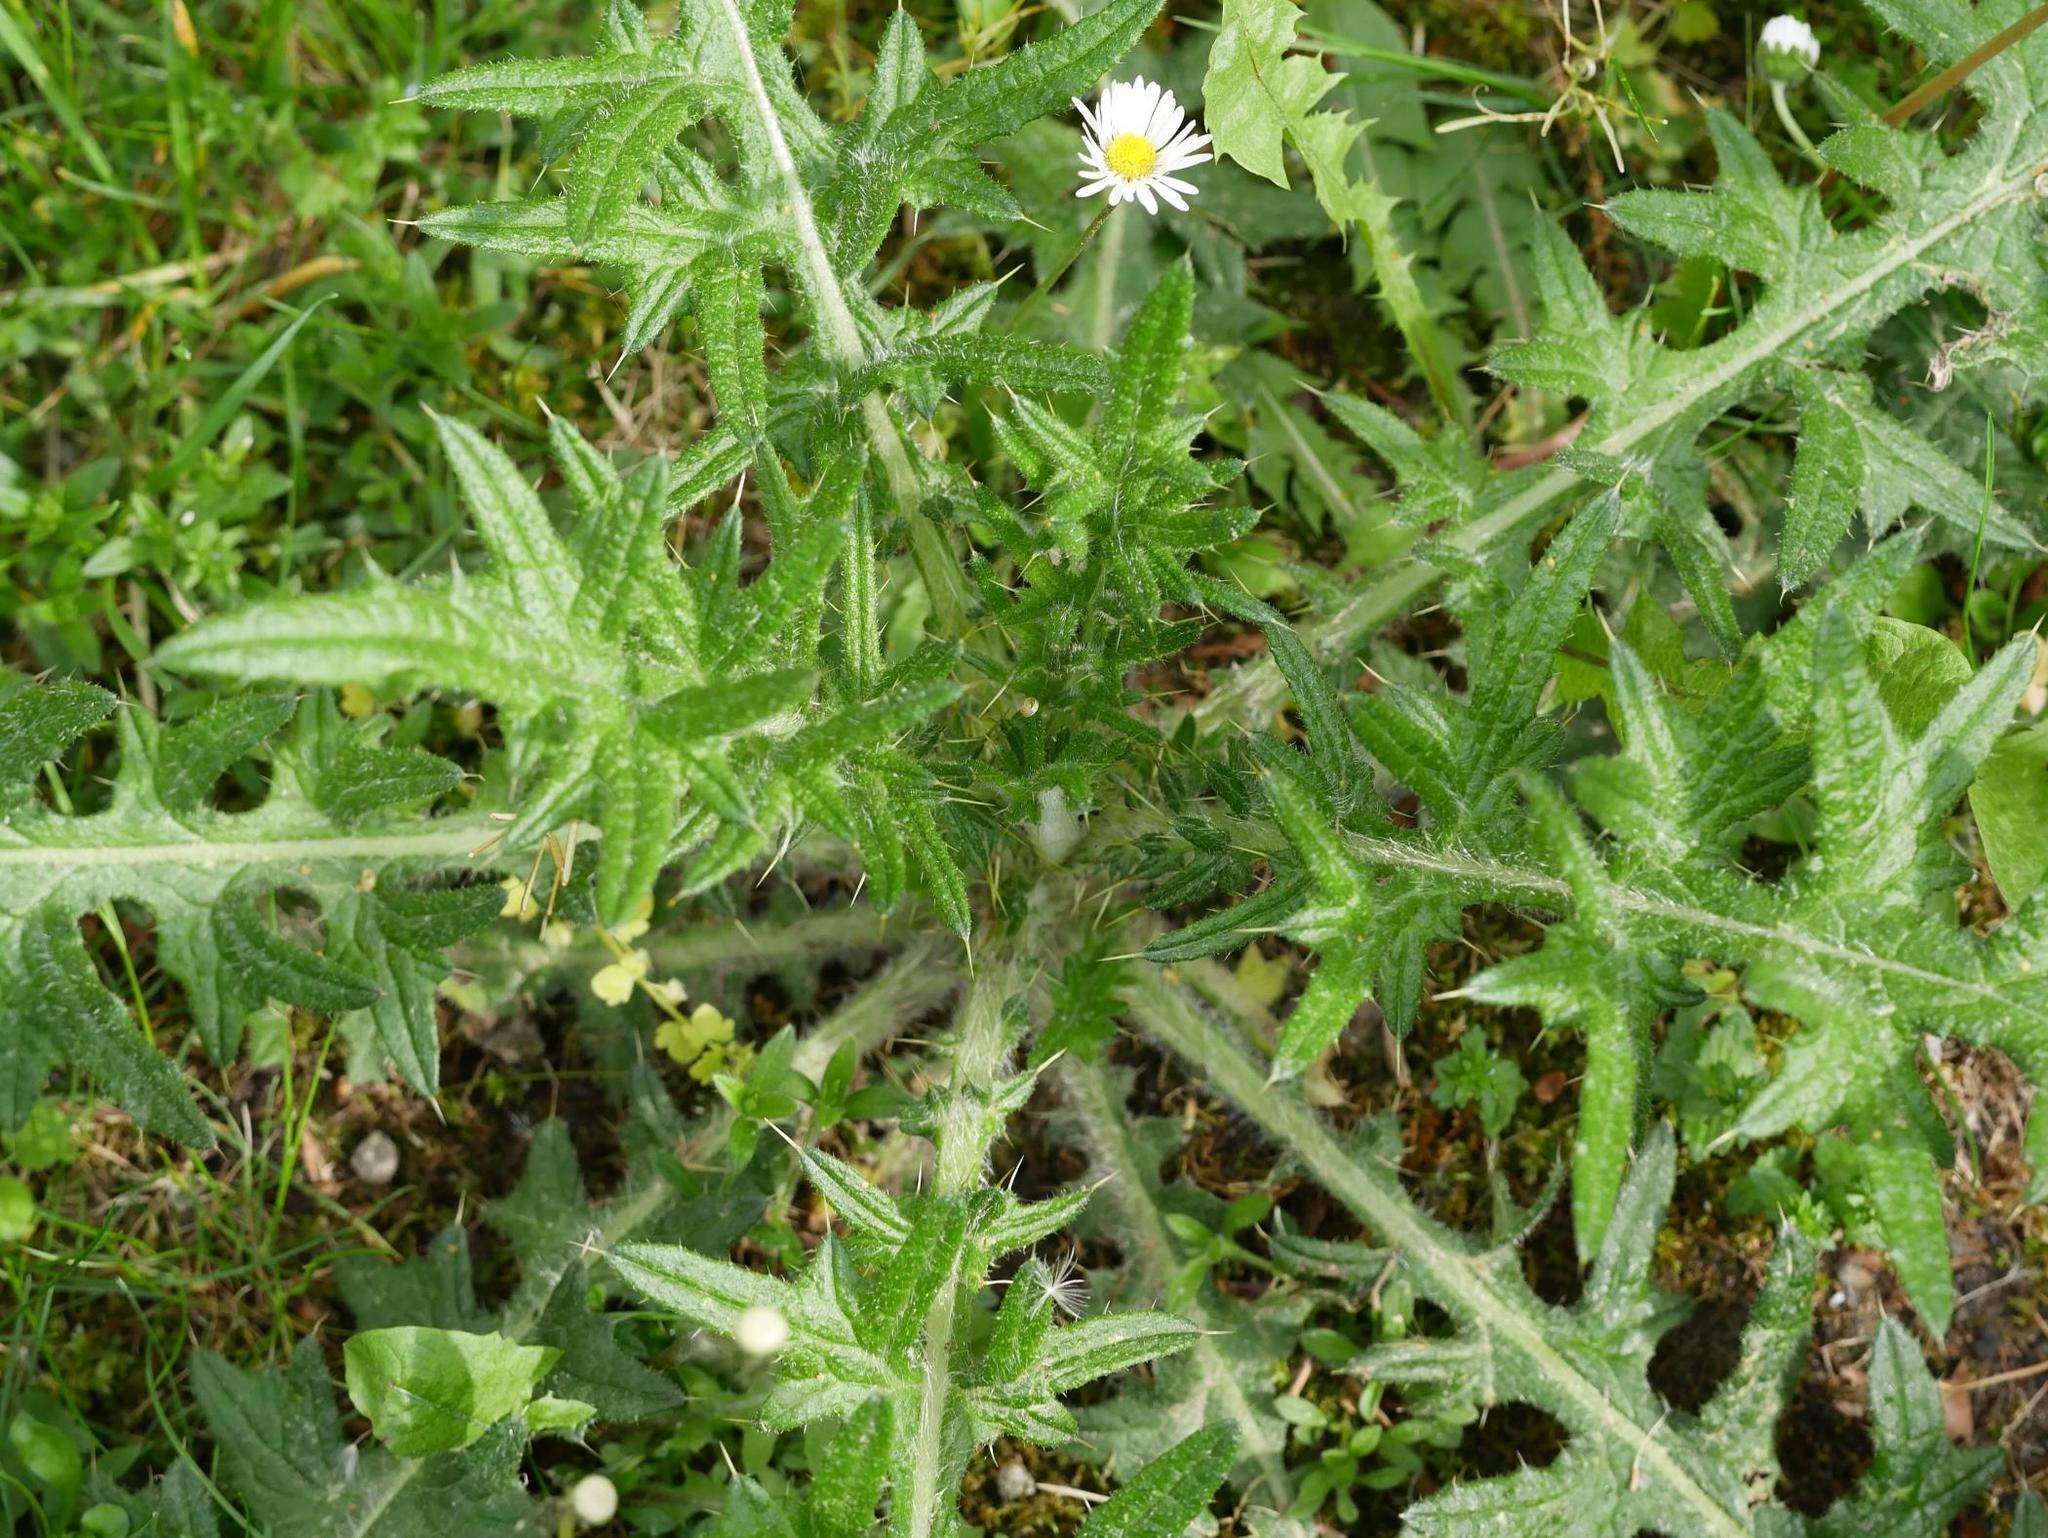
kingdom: Plantae
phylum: Tracheophyta
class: Magnoliopsida
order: Asterales
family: Asteraceae
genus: Cirsium
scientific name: Cirsium vulgare
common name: Bull thistle
